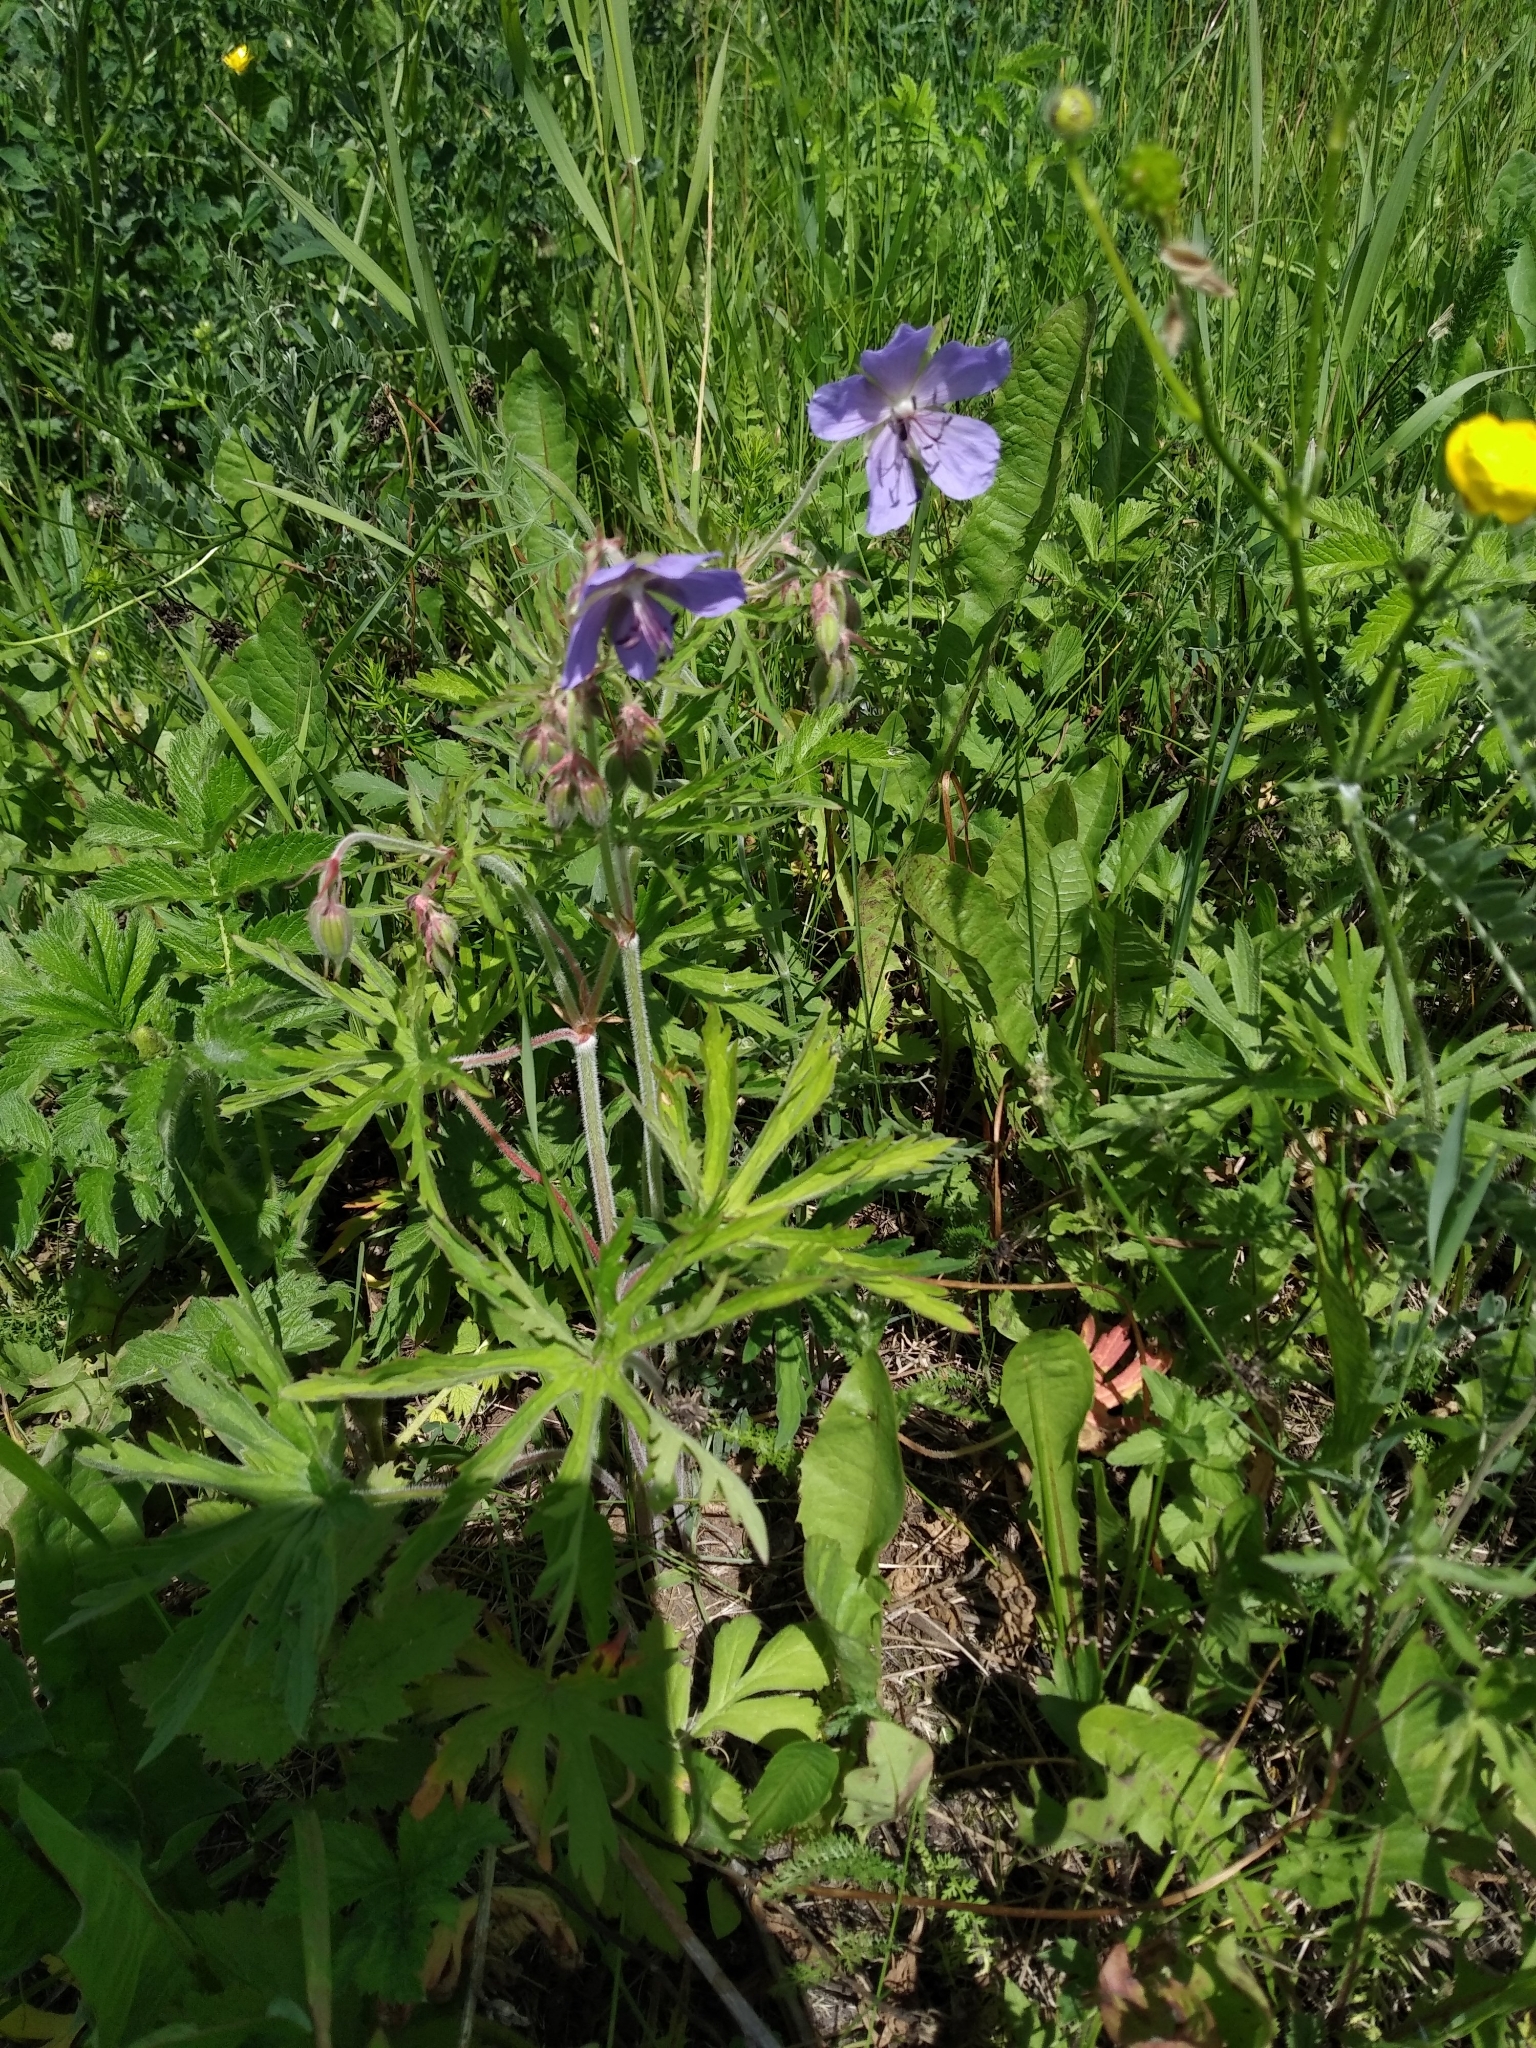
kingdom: Plantae
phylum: Tracheophyta
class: Magnoliopsida
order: Geraniales
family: Geraniaceae
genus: Geranium
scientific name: Geranium pratense
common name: Meadow crane's-bill
